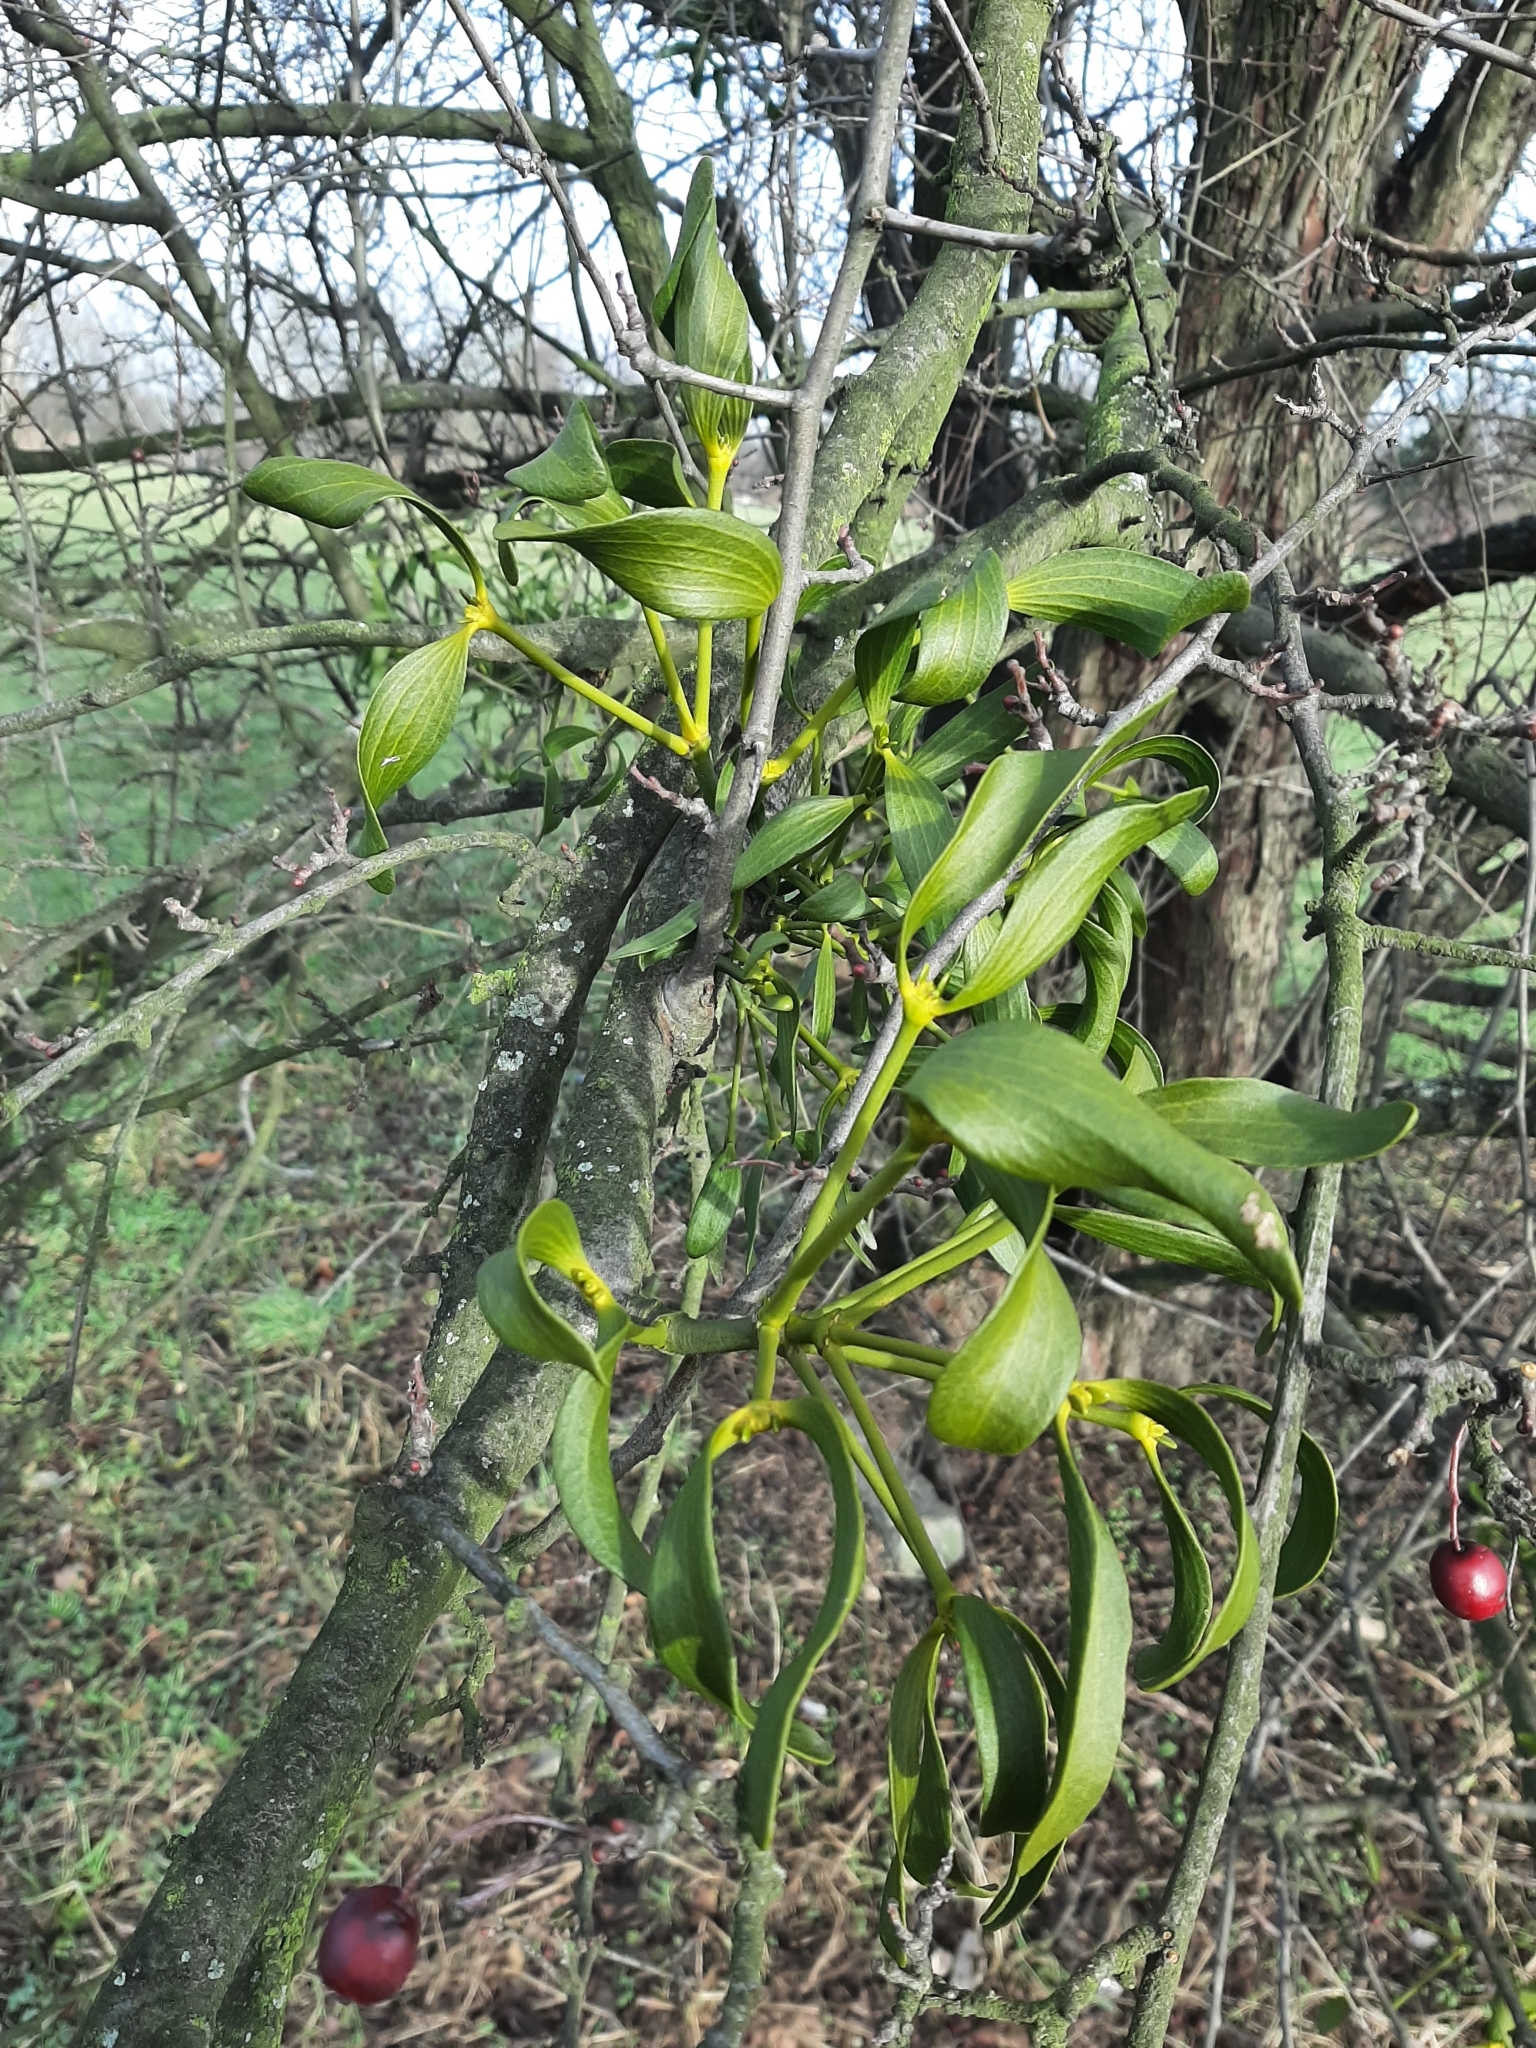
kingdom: Plantae
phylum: Tracheophyta
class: Magnoliopsida
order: Santalales
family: Viscaceae
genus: Viscum
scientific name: Viscum album
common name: Mistletoe
